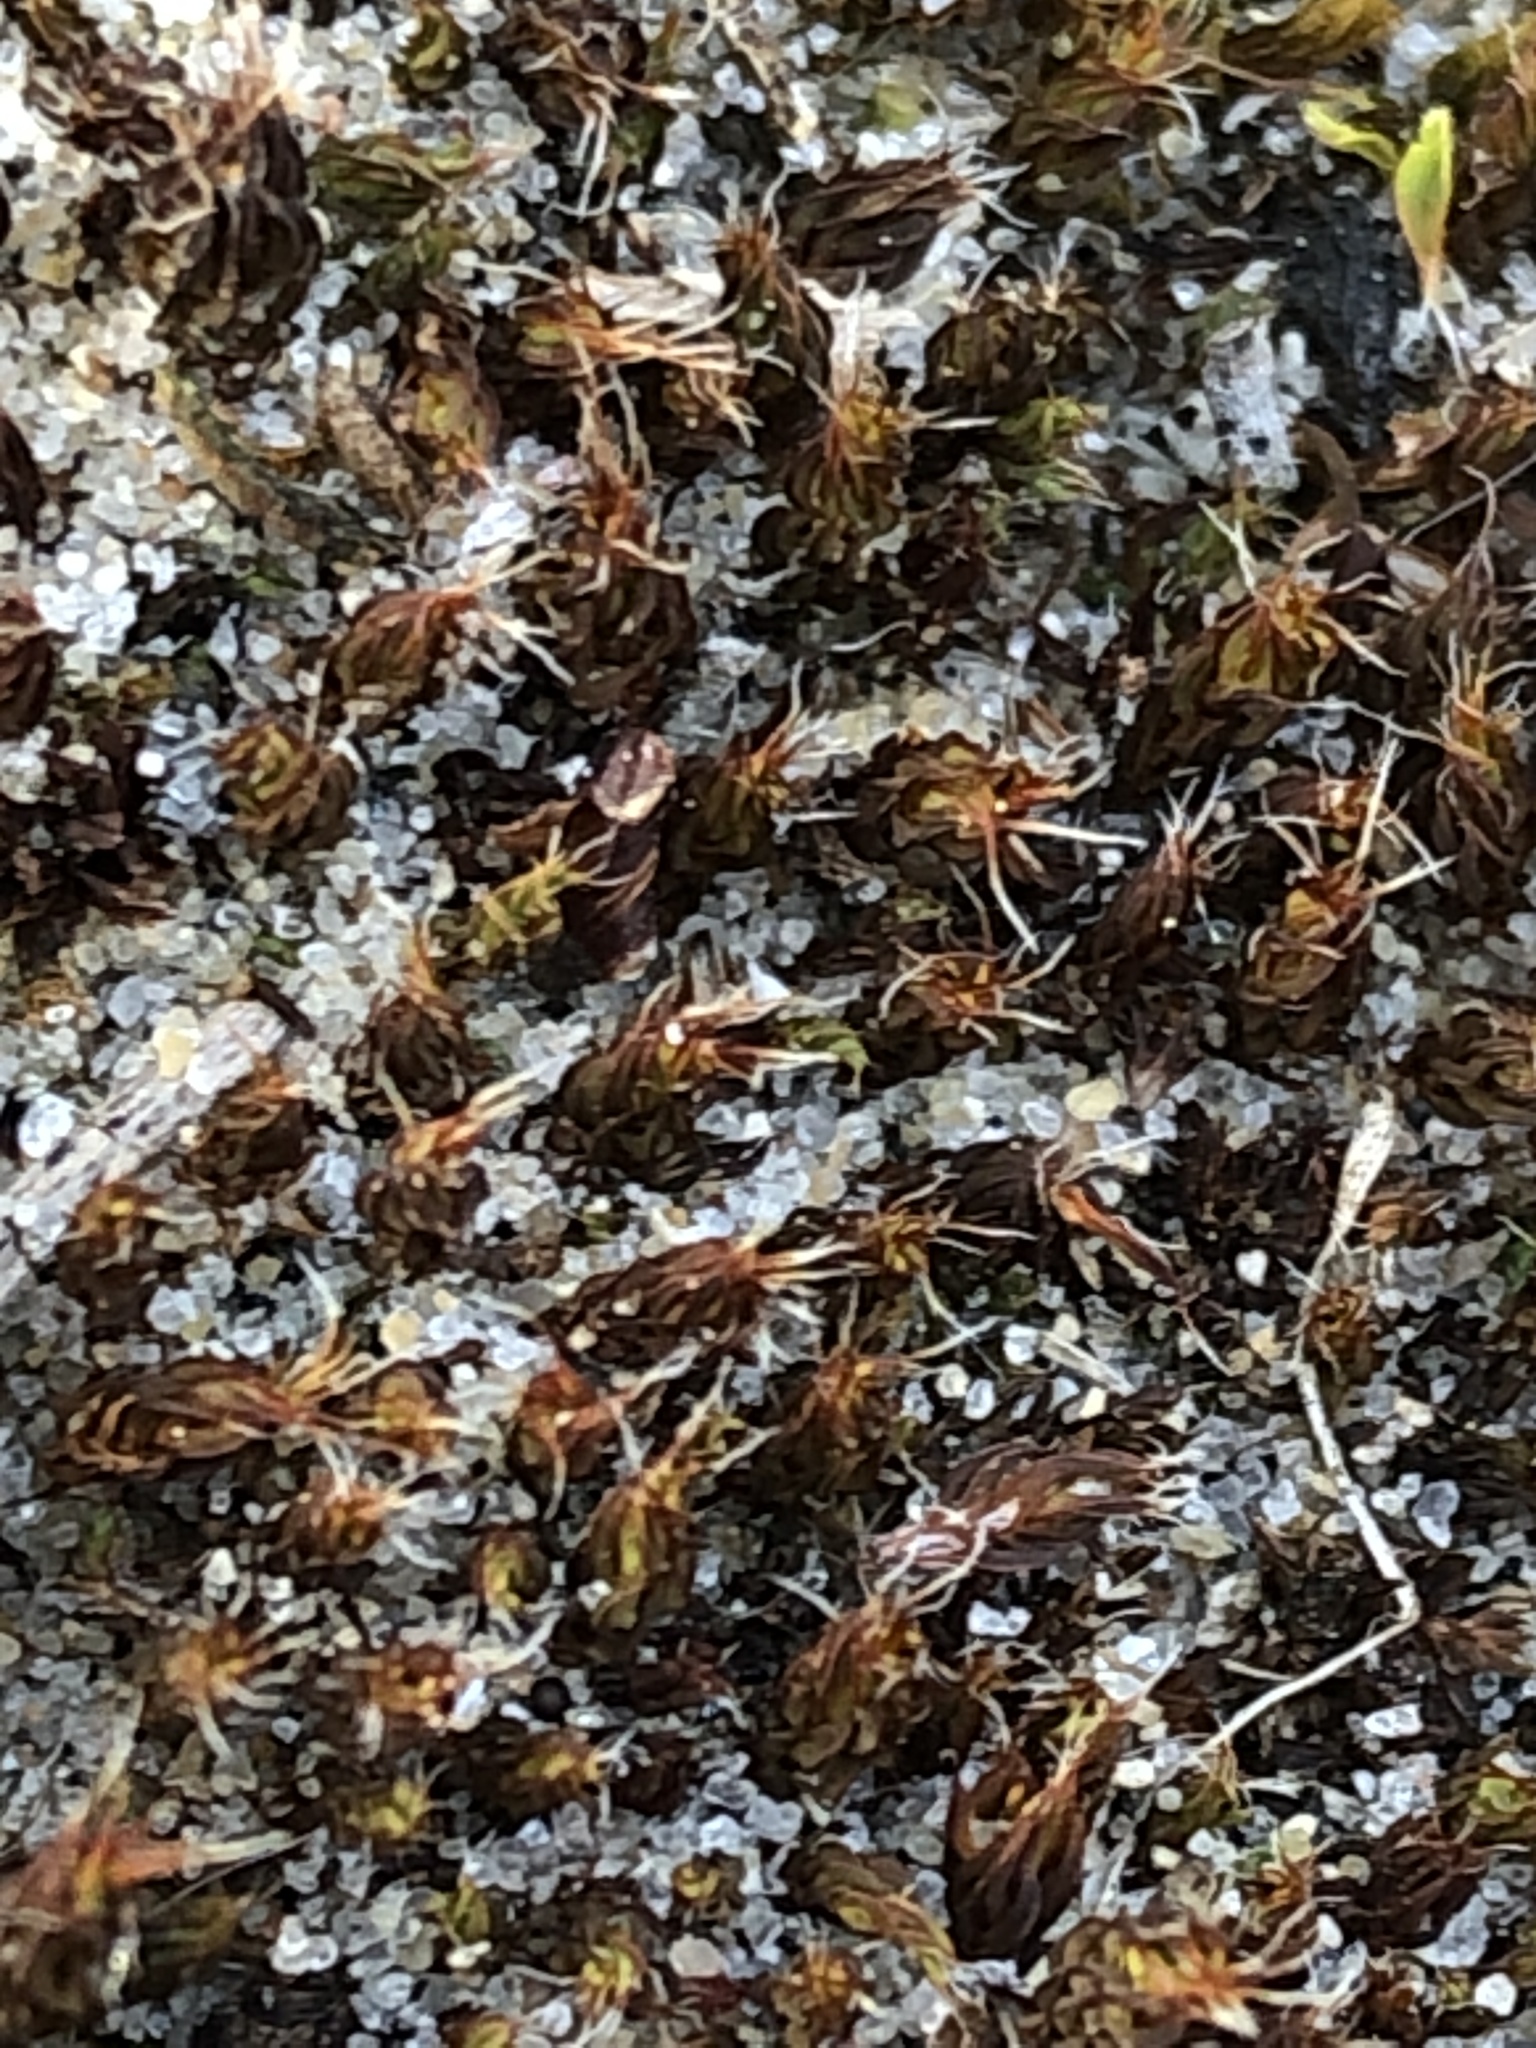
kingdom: Plantae
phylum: Bryophyta
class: Bryopsida
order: Pottiales
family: Pottiaceae
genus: Syntrichia
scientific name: Syntrichia ruralis
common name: Sidewalk screw moss
